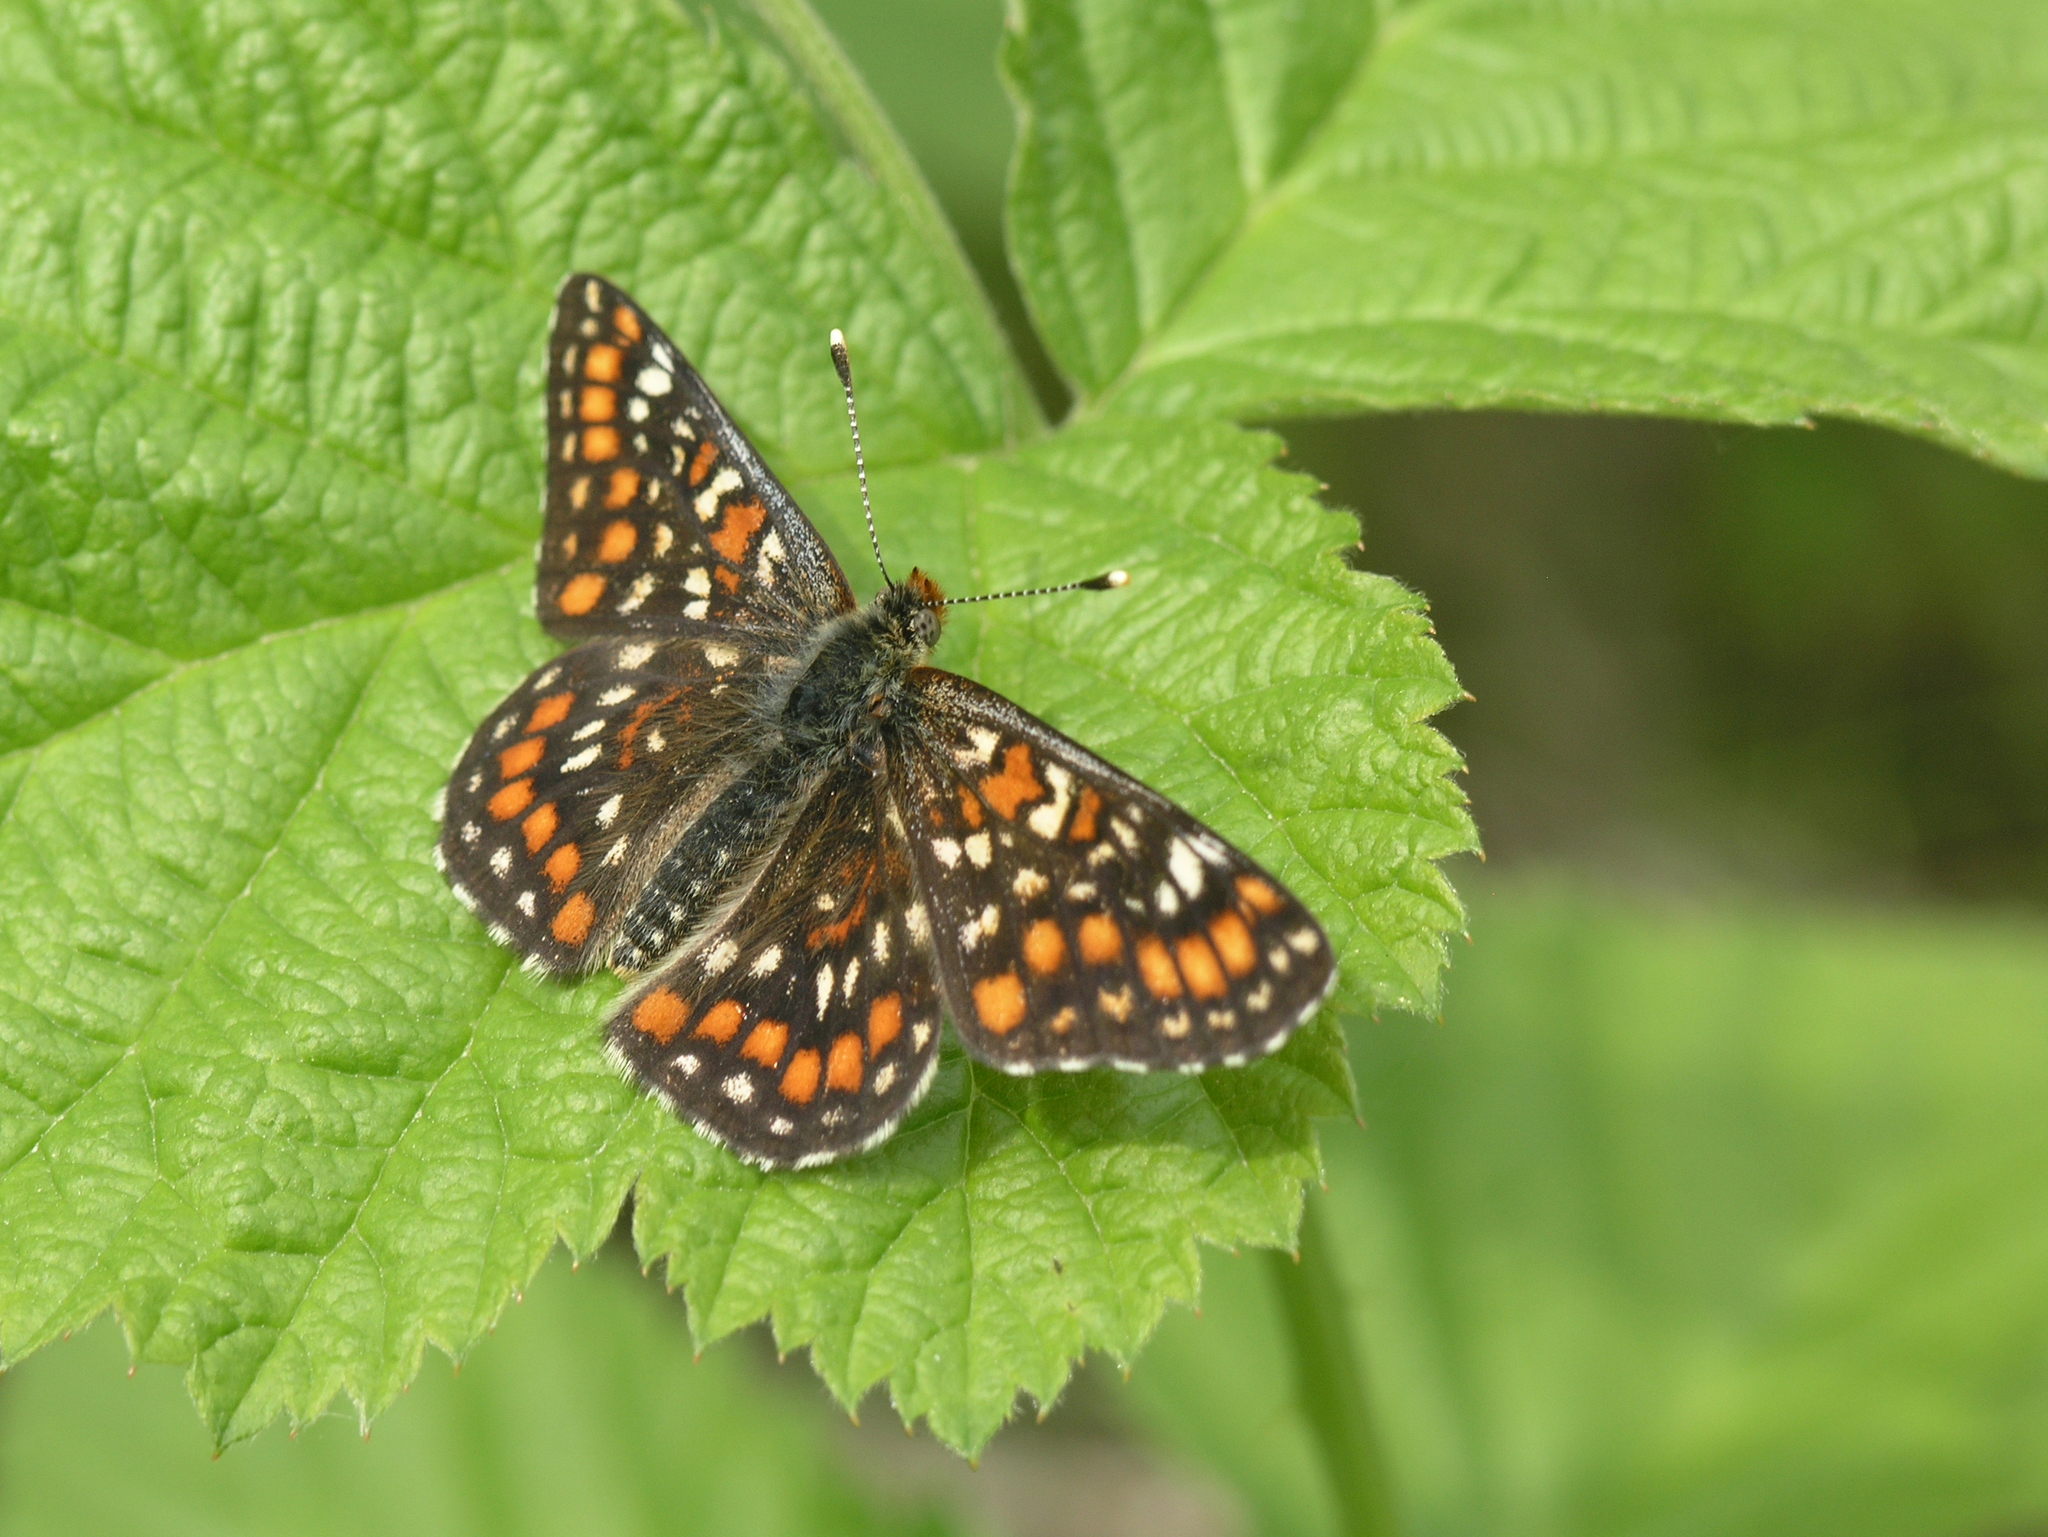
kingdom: Animalia
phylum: Arthropoda
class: Insecta
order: Lepidoptera
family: Nymphalidae
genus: Euphydryas
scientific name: Euphydryas maturna
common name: Scarce fritillary
